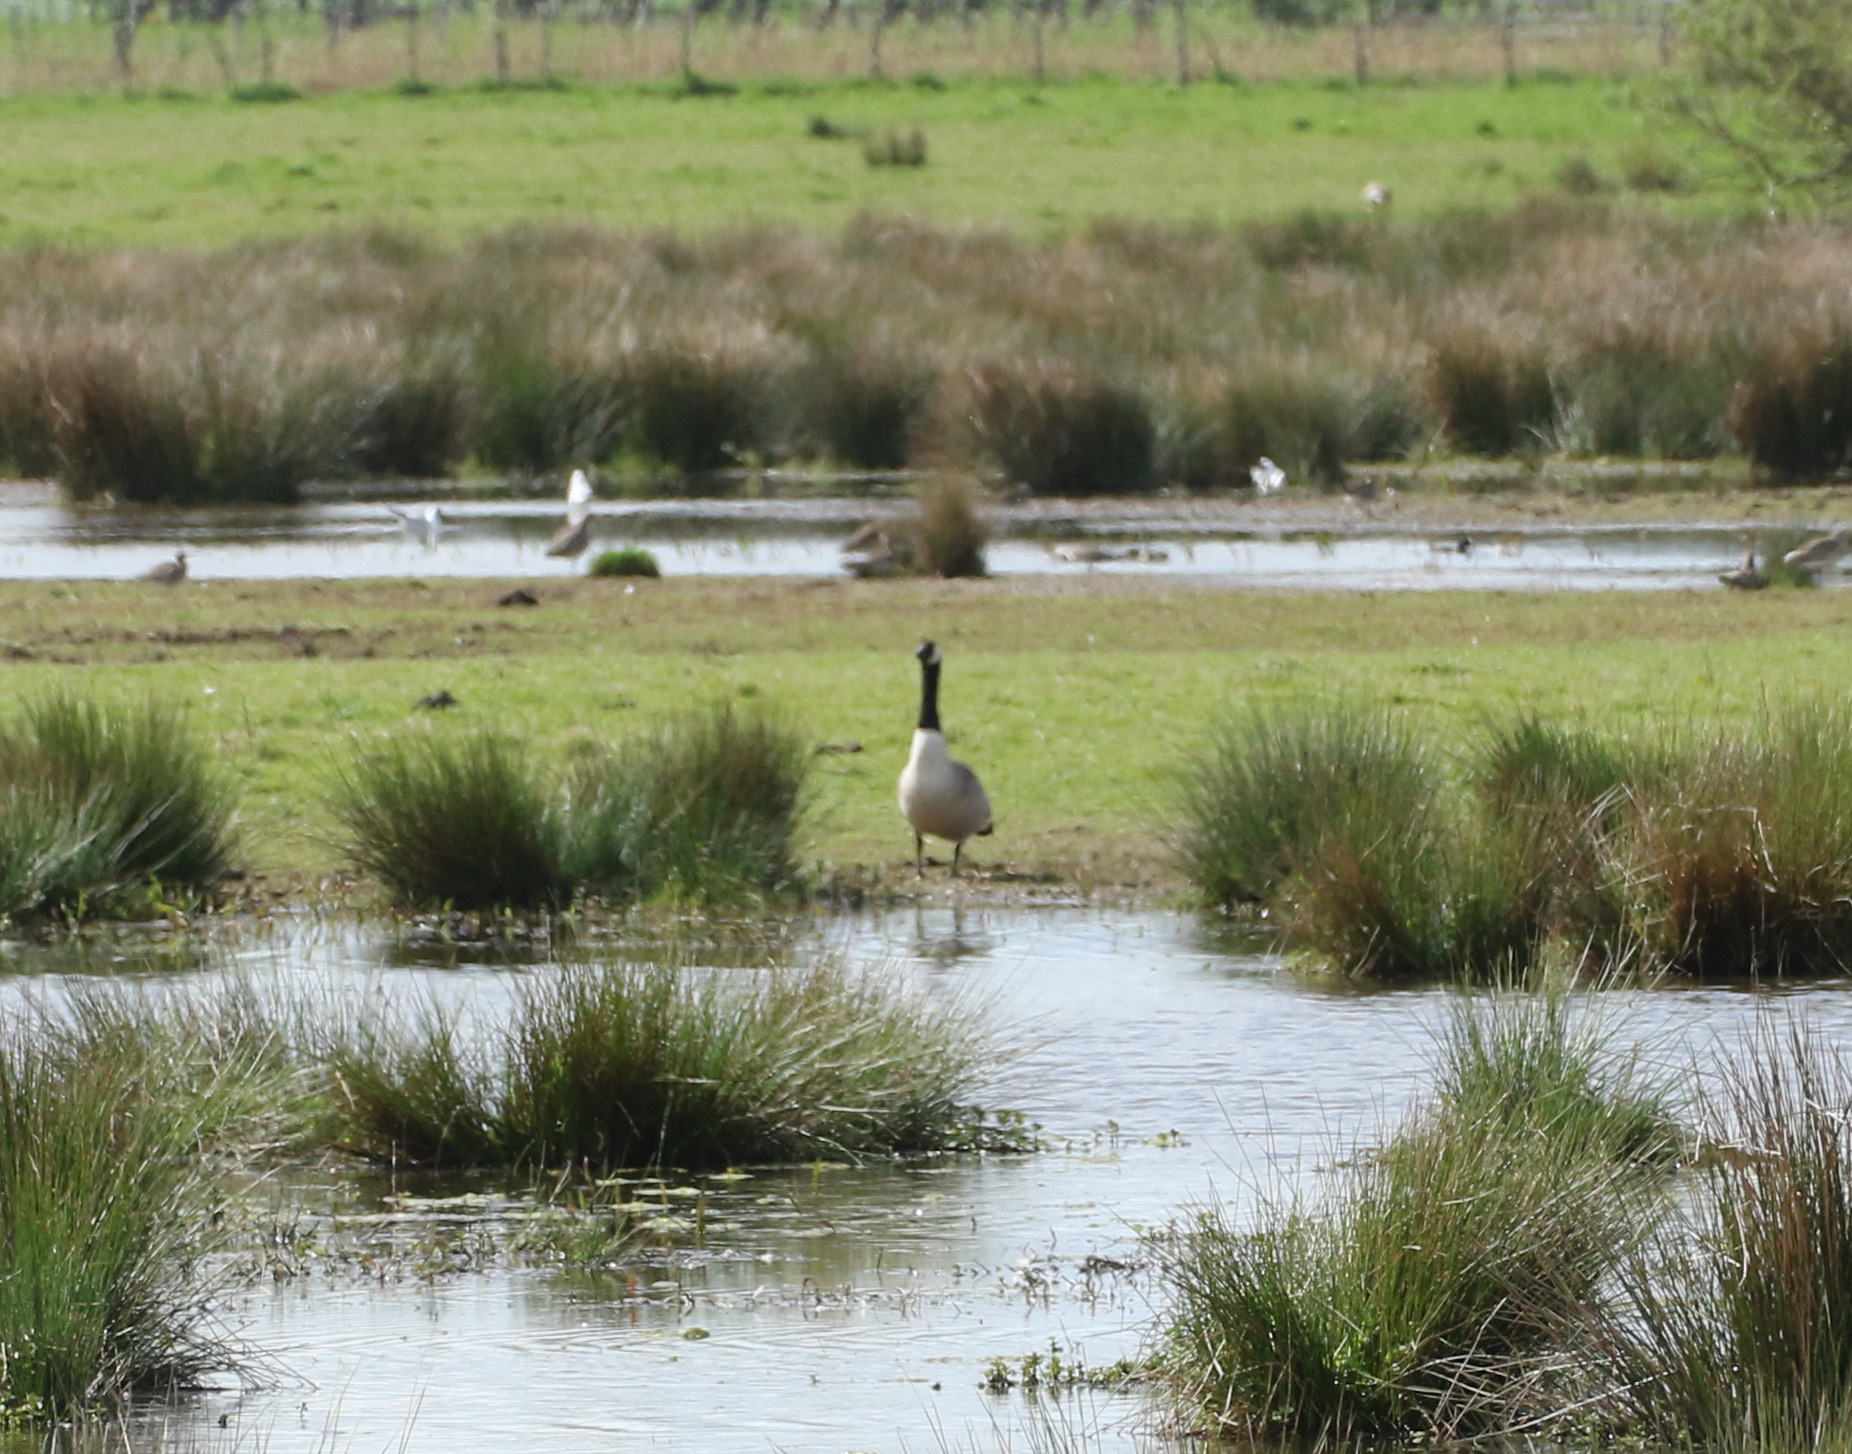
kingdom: Animalia
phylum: Chordata
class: Aves
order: Anseriformes
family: Anatidae
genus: Branta
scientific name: Branta canadensis
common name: Canada goose
